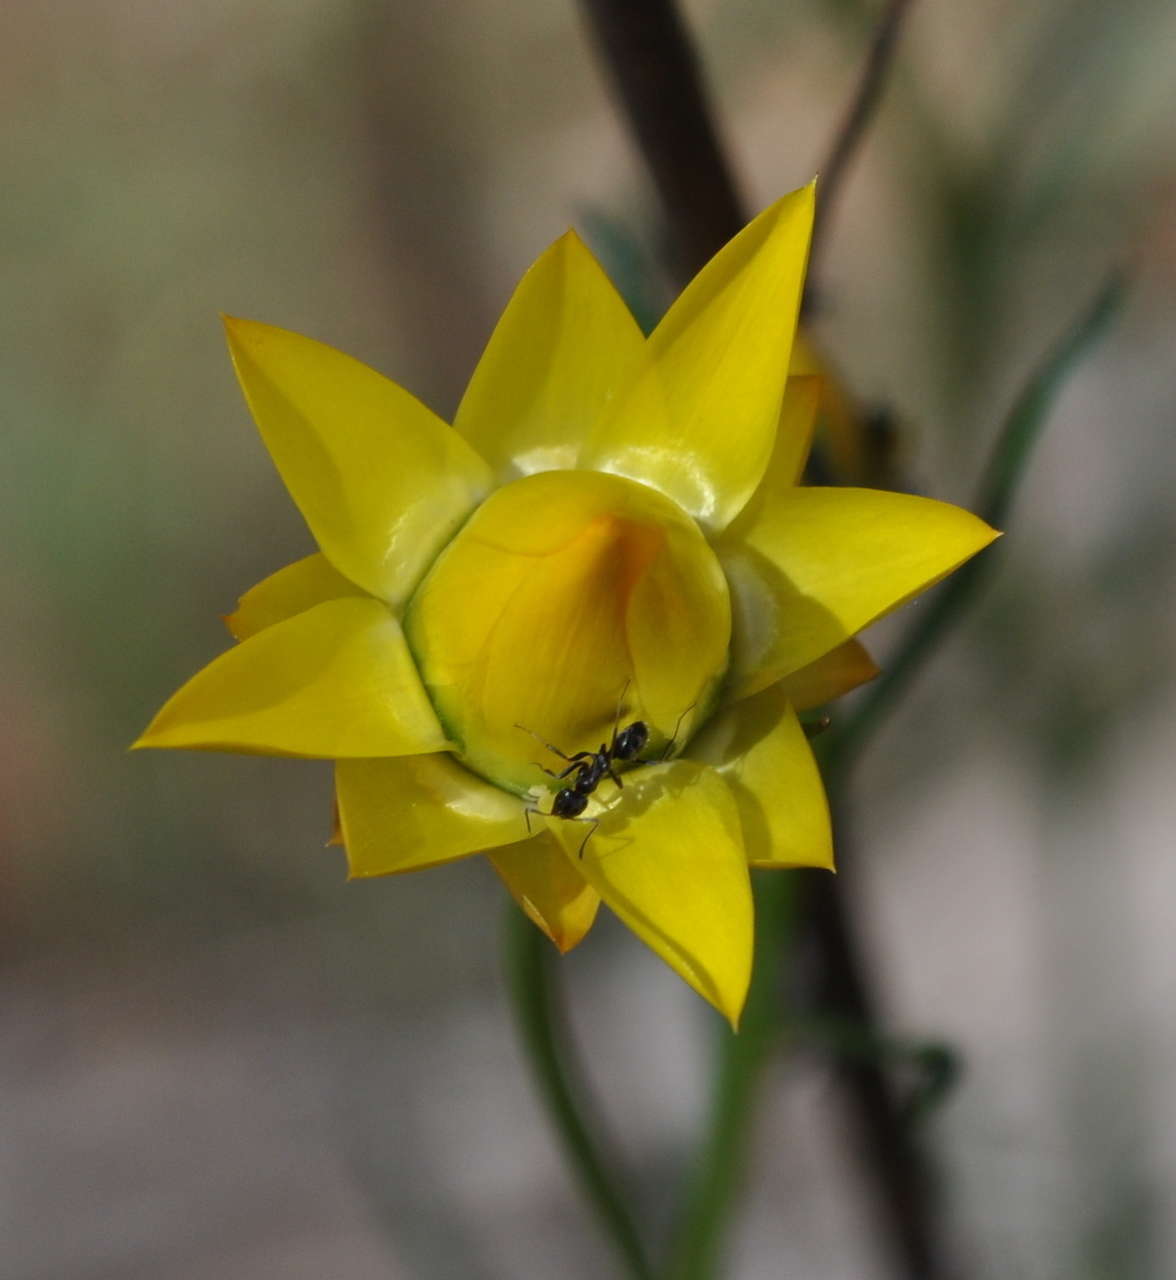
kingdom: Plantae
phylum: Tracheophyta
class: Magnoliopsida
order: Asterales
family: Asteraceae
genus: Xerochrysum
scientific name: Xerochrysum viscosum
